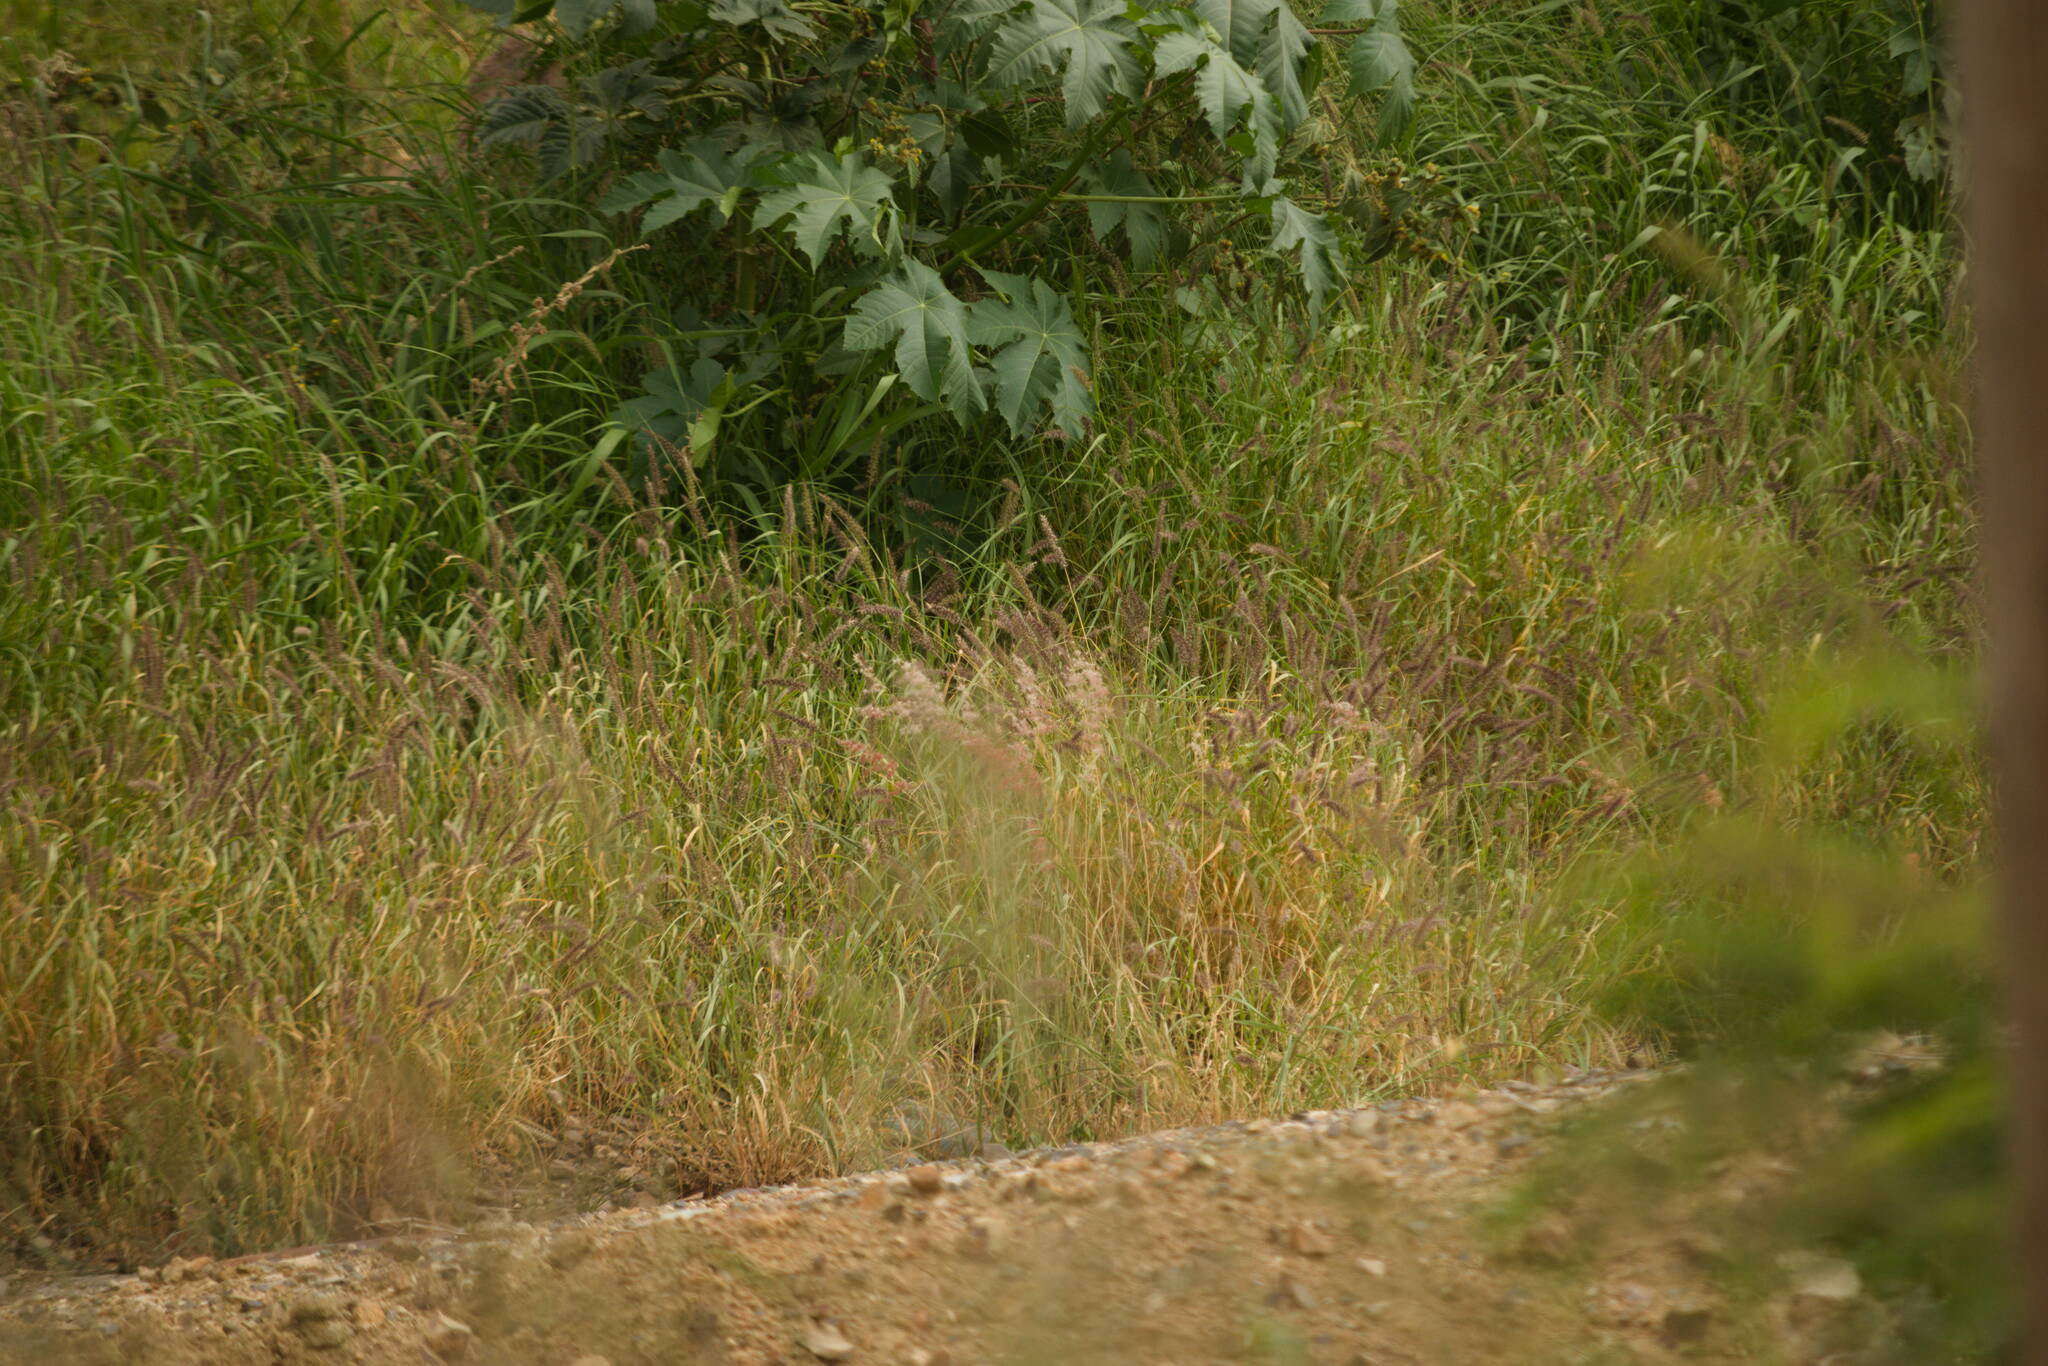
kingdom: Plantae
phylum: Tracheophyta
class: Liliopsida
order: Poales
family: Poaceae
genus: Melinis
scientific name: Melinis repens
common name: Rose natal grass
